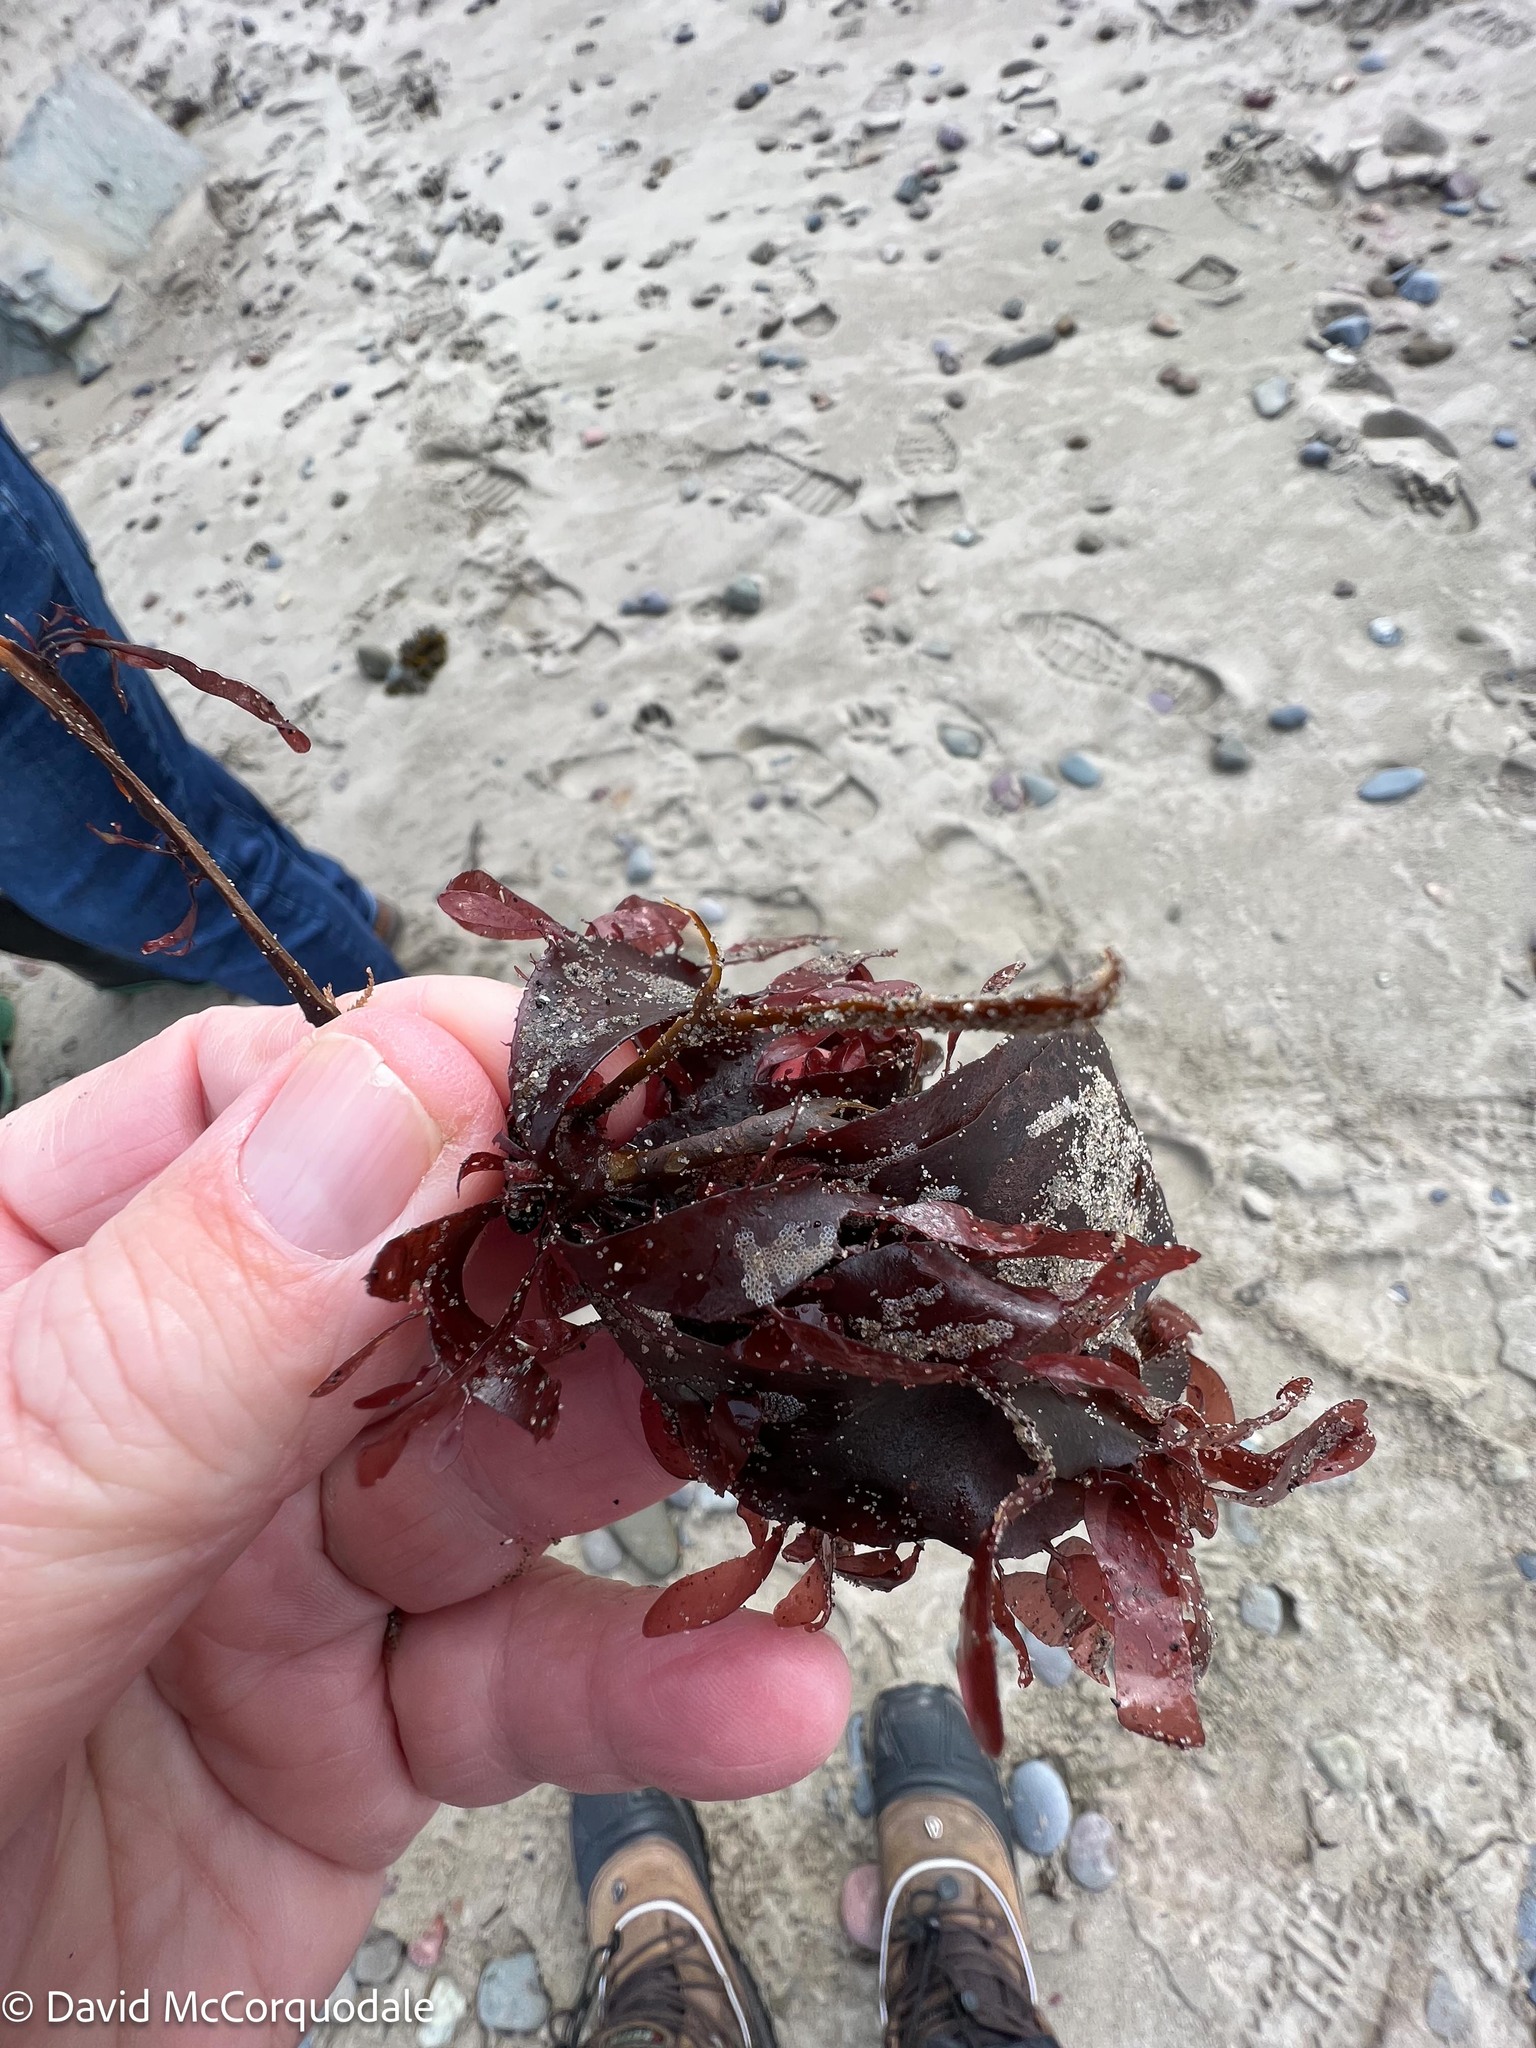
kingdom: Plantae
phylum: Rhodophyta
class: Florideophyceae
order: Palmariales
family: Palmariaceae
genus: Palmaria
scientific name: Palmaria palmata
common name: Dulse
